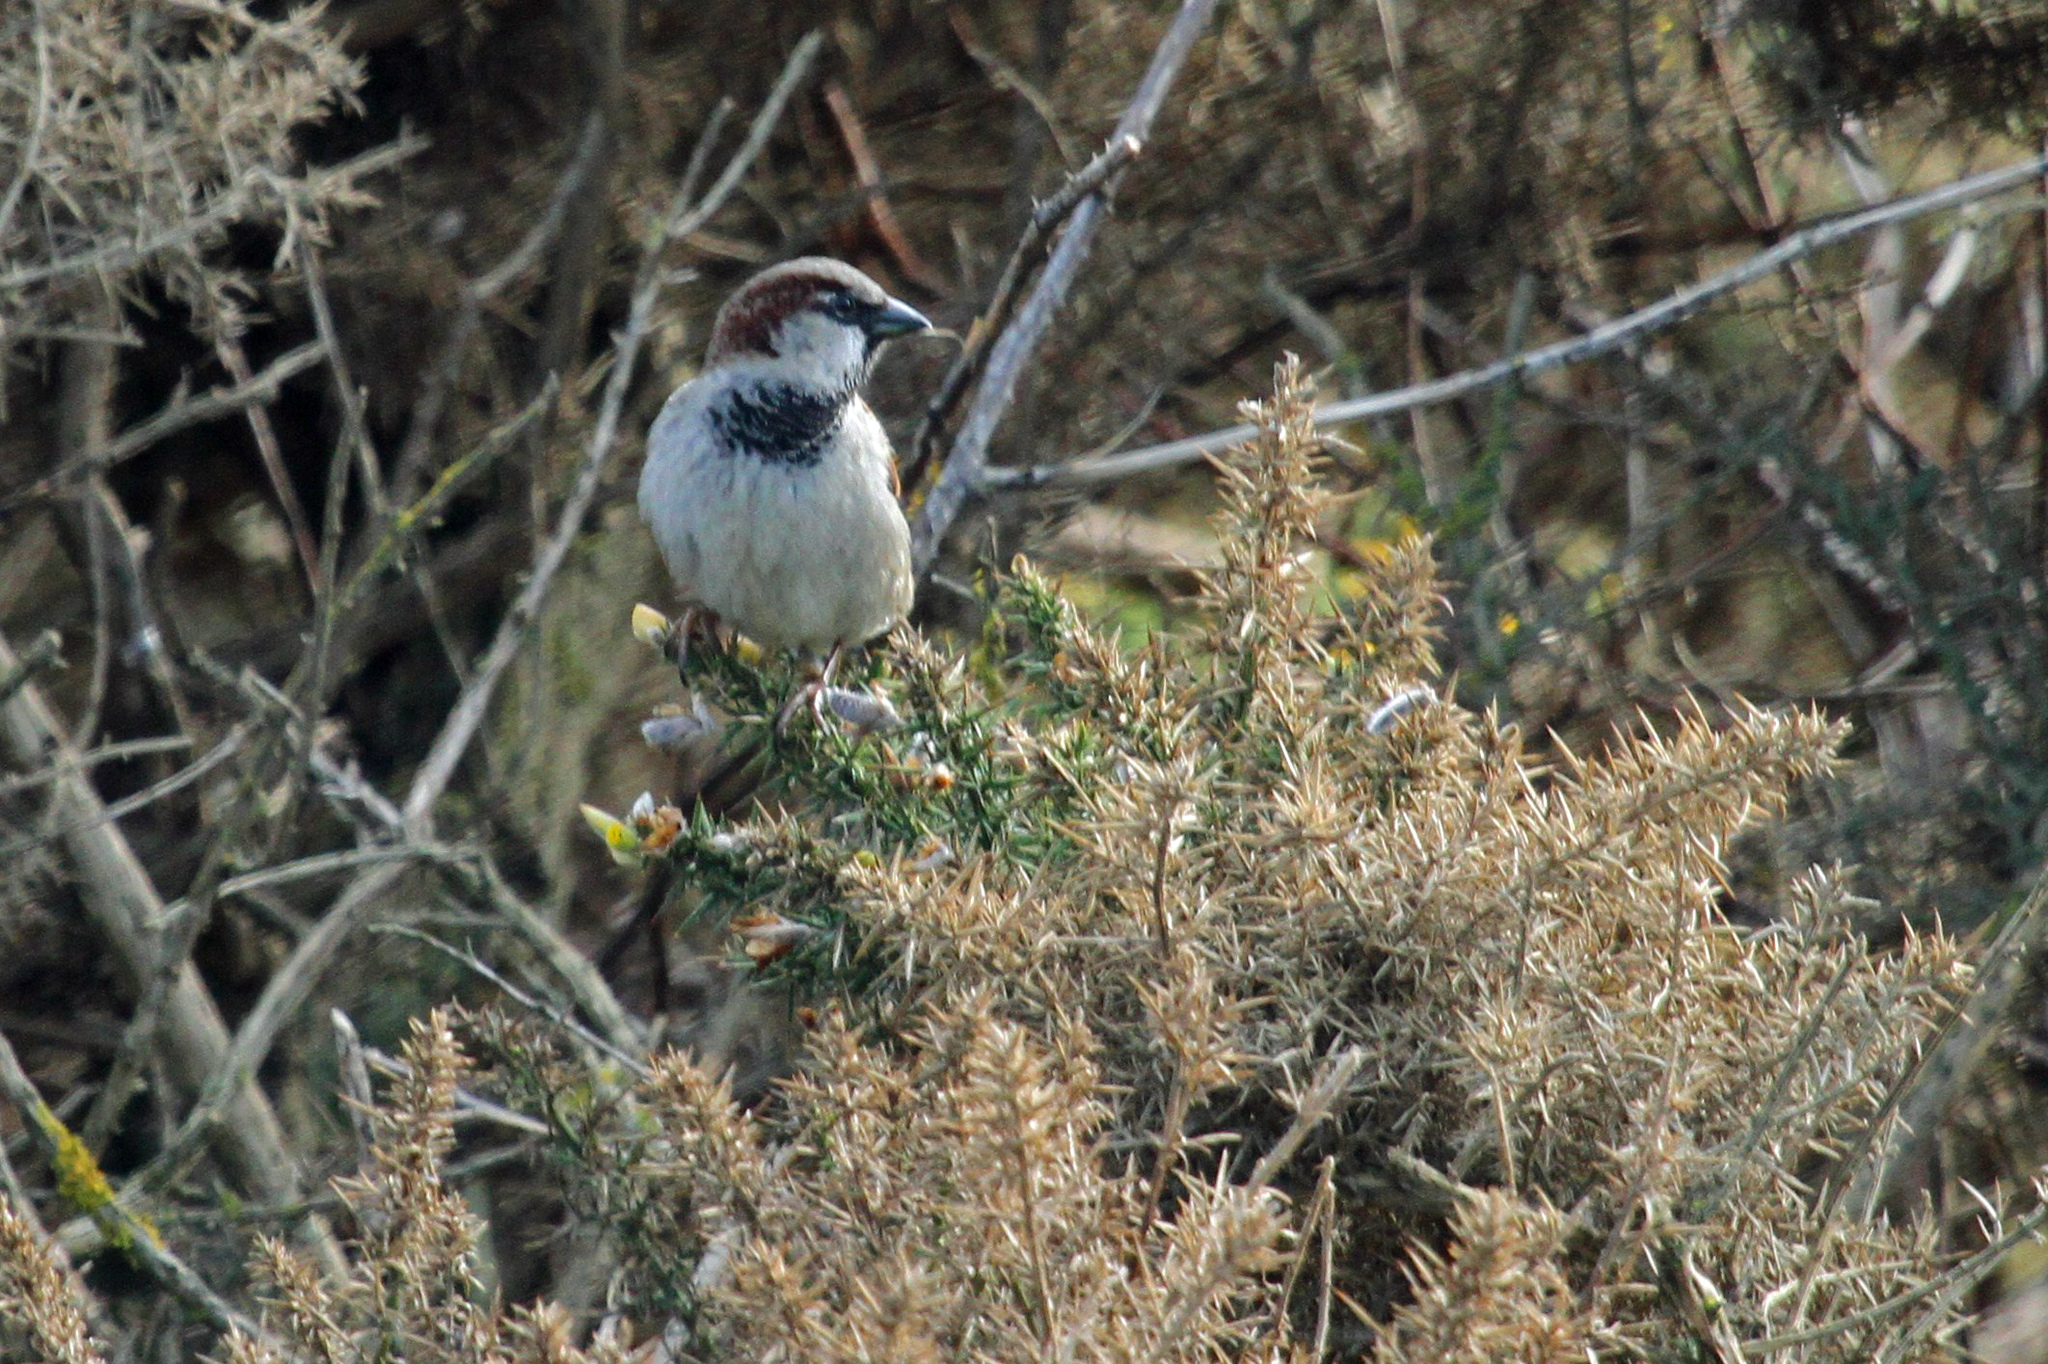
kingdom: Animalia
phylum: Chordata
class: Aves
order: Passeriformes
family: Passeridae
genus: Passer
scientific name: Passer domesticus
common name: House sparrow
